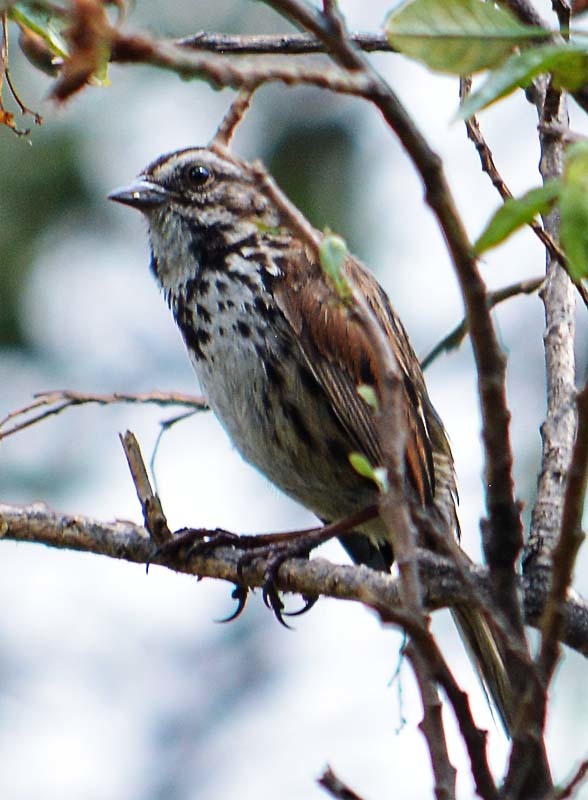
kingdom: Animalia
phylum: Chordata
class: Aves
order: Passeriformes
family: Passerellidae
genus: Melospiza
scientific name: Melospiza melodia
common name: Song sparrow
